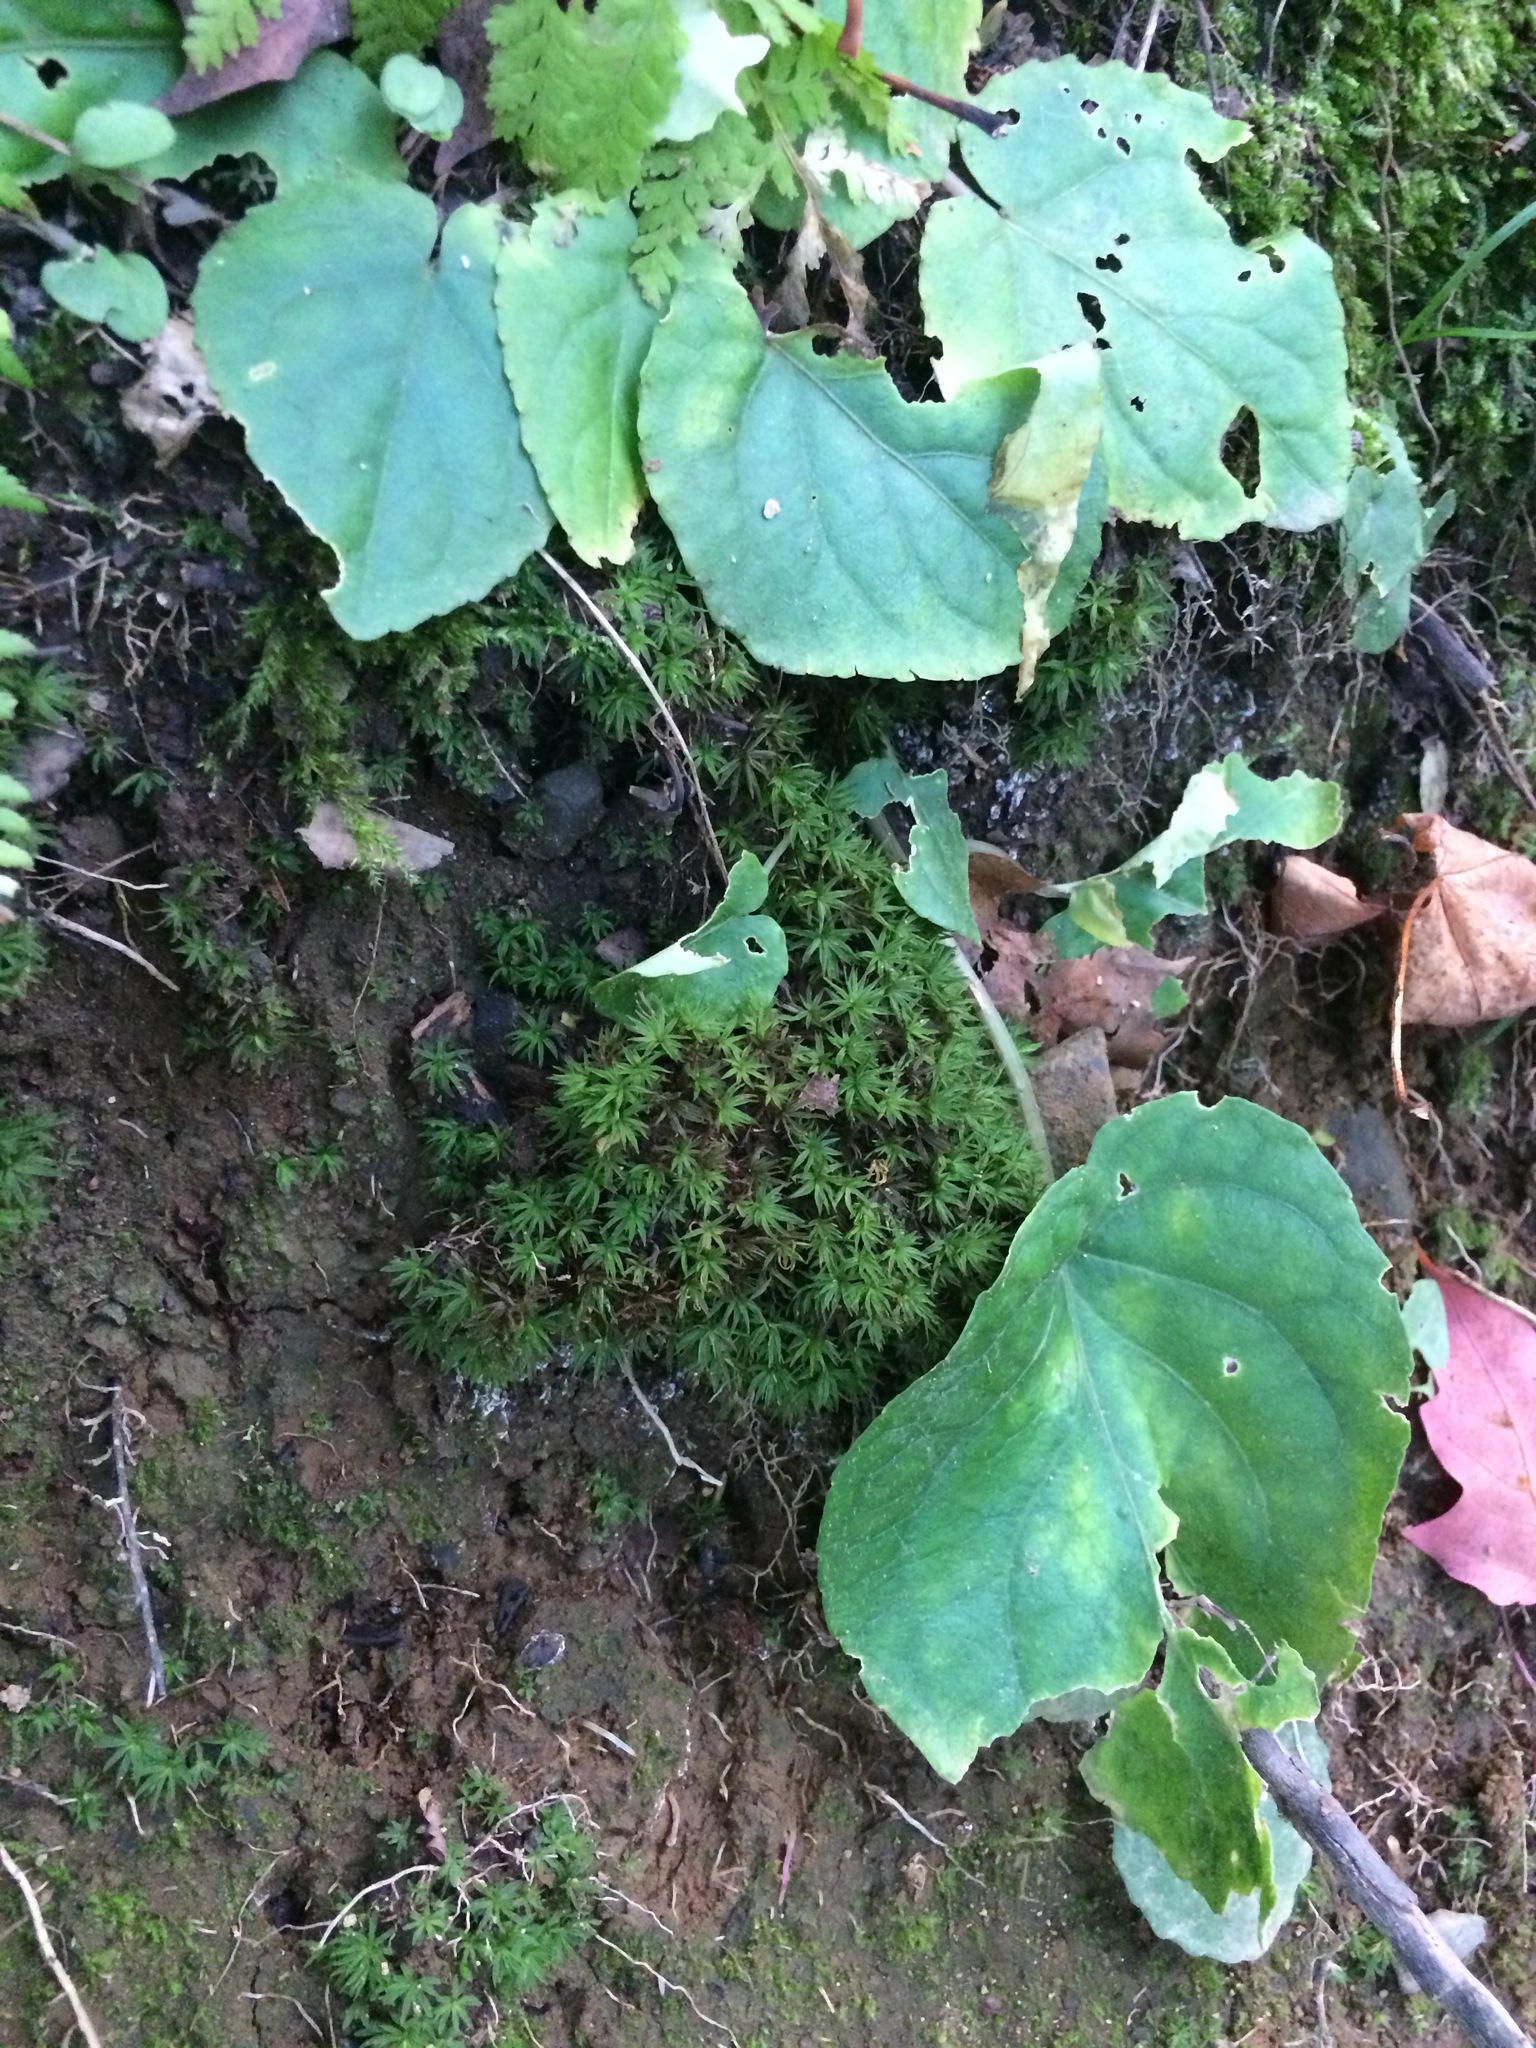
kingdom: Plantae
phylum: Tracheophyta
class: Magnoliopsida
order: Malpighiales
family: Violaceae
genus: Viola
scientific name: Viola rotundifolia
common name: Early yellow violet
